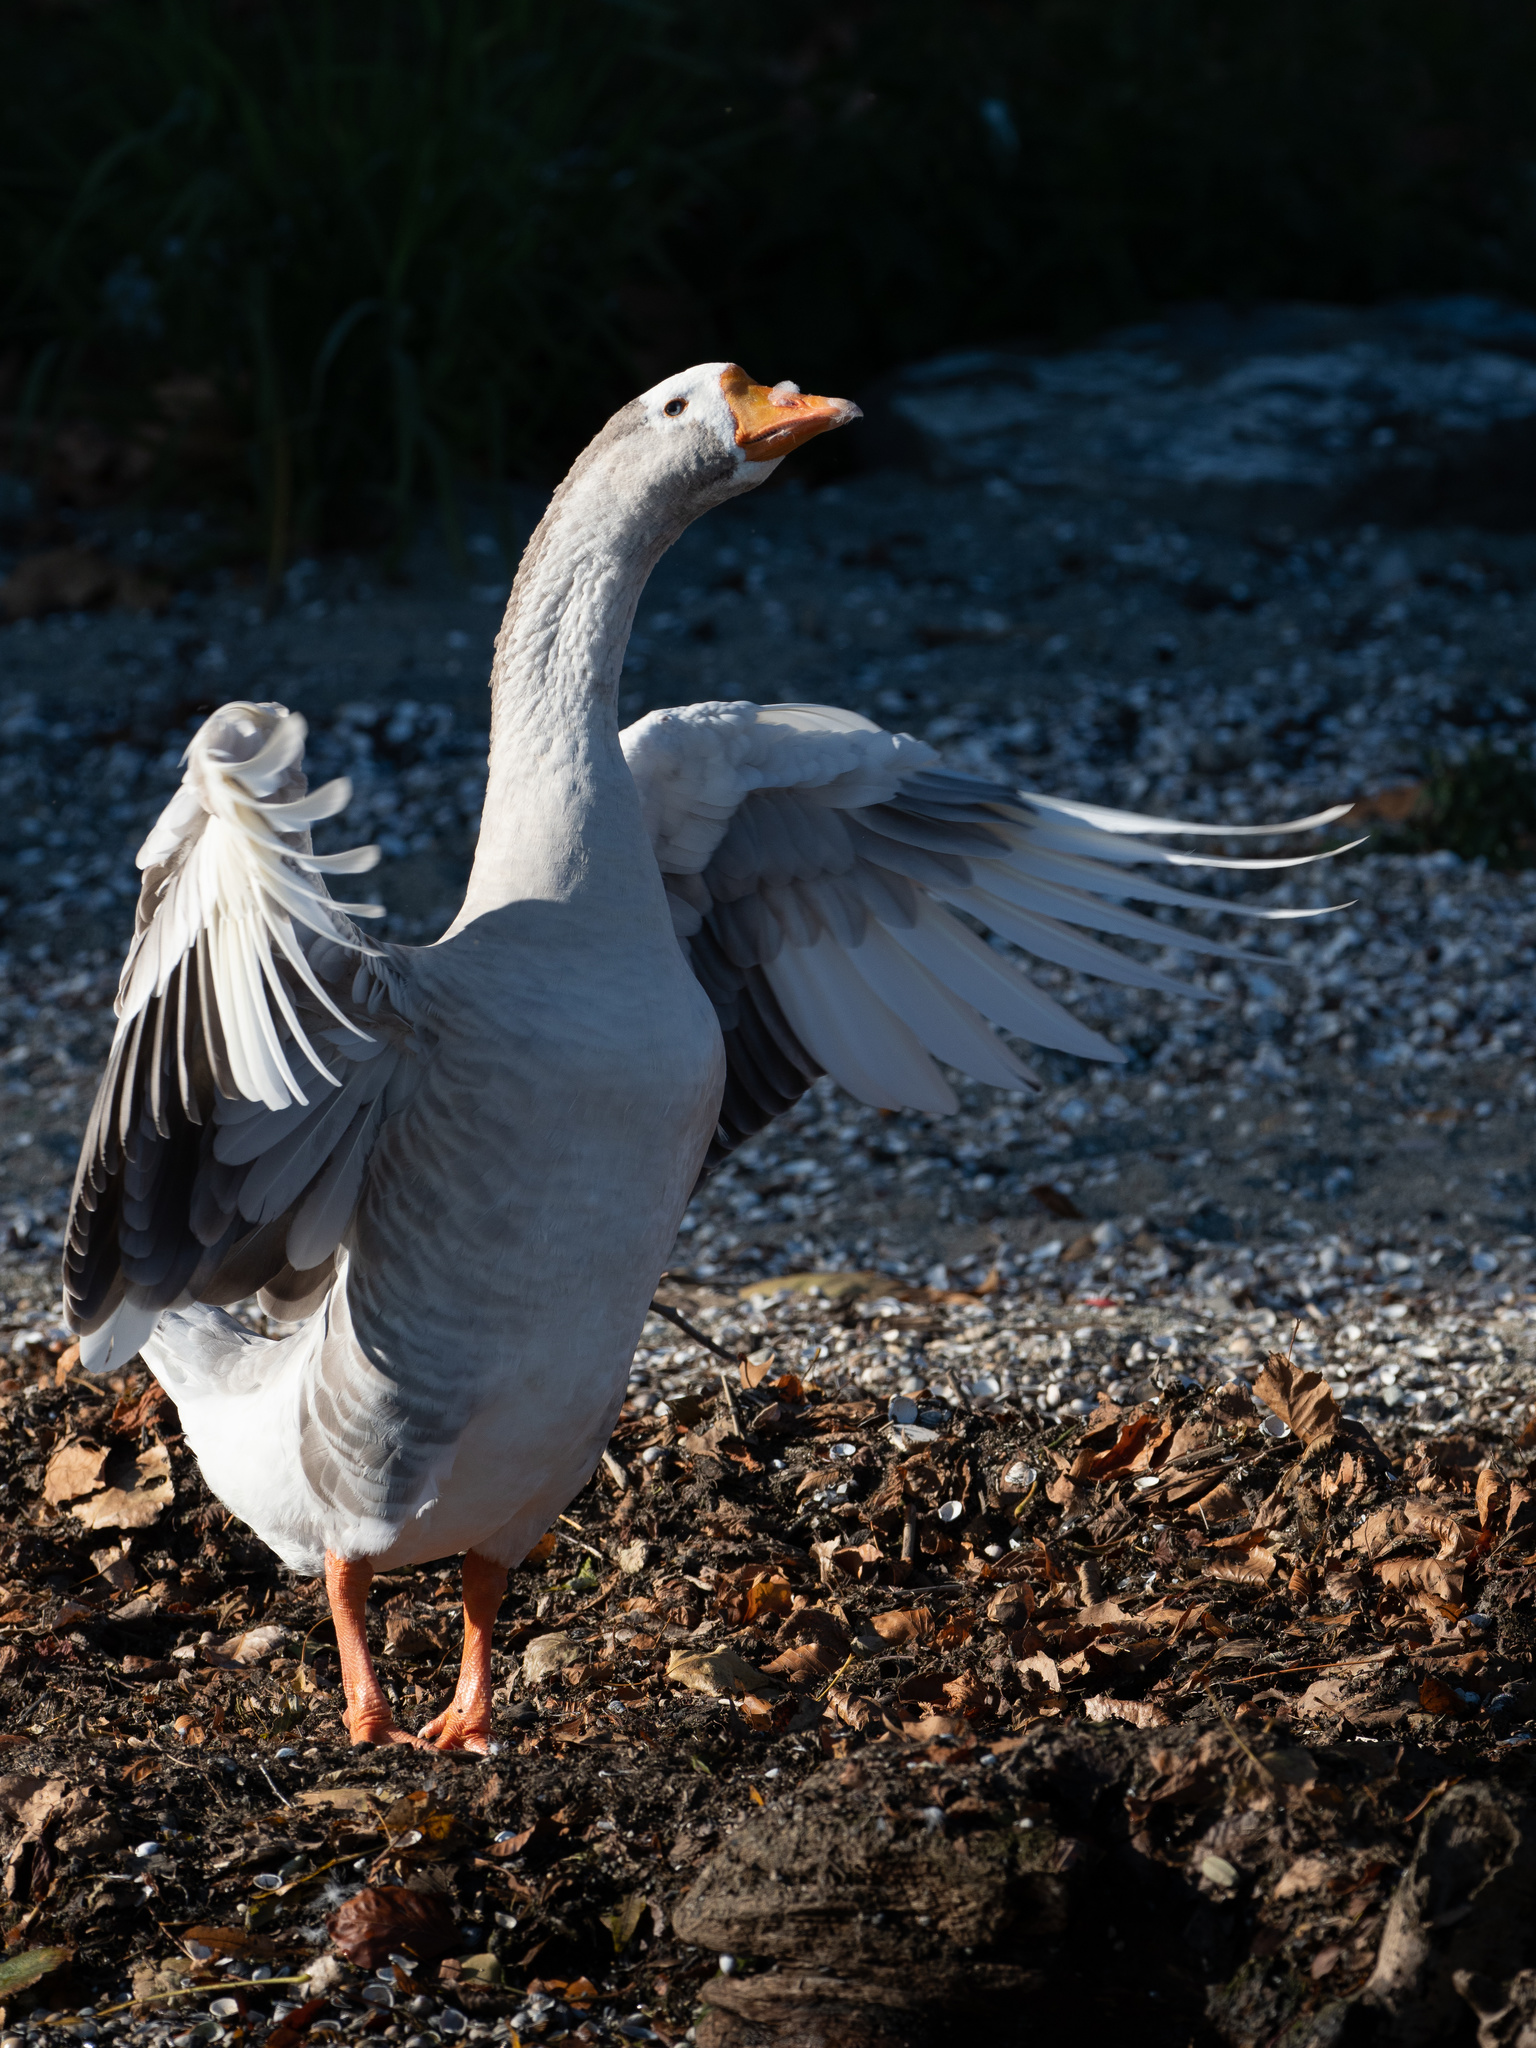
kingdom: Animalia
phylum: Chordata
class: Aves
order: Anseriformes
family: Anatidae
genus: Anser
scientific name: Anser
